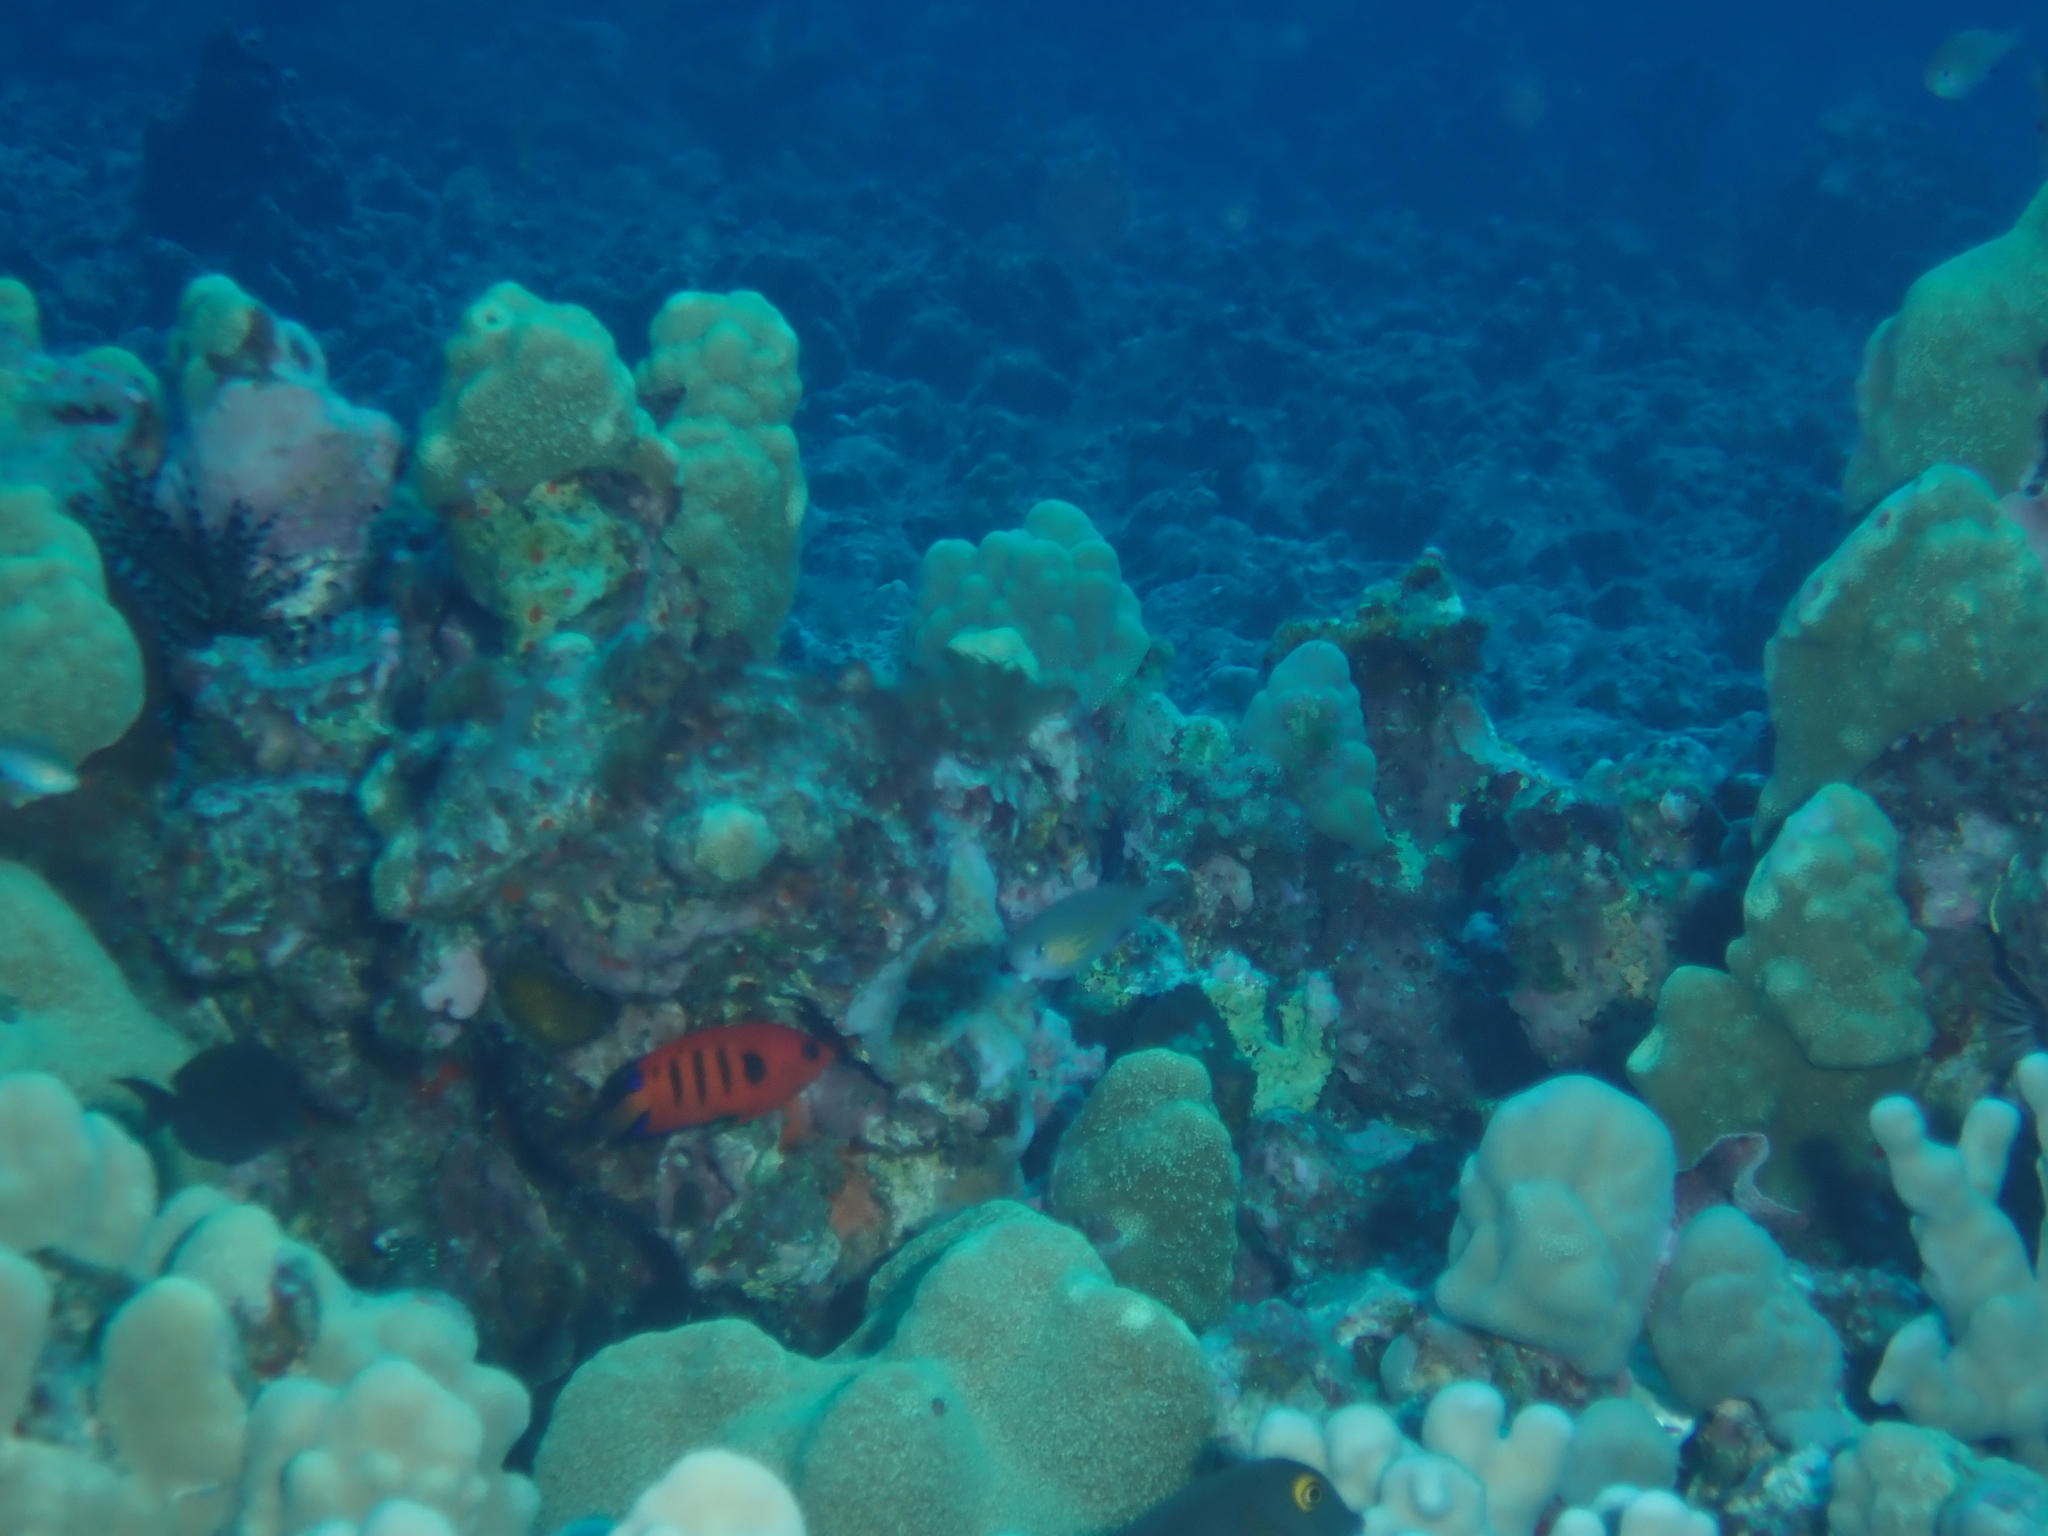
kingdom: Animalia
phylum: Chordata
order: Perciformes
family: Pomacanthidae
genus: Centropyge
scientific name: Centropyge loriculus
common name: Flame angelfish
